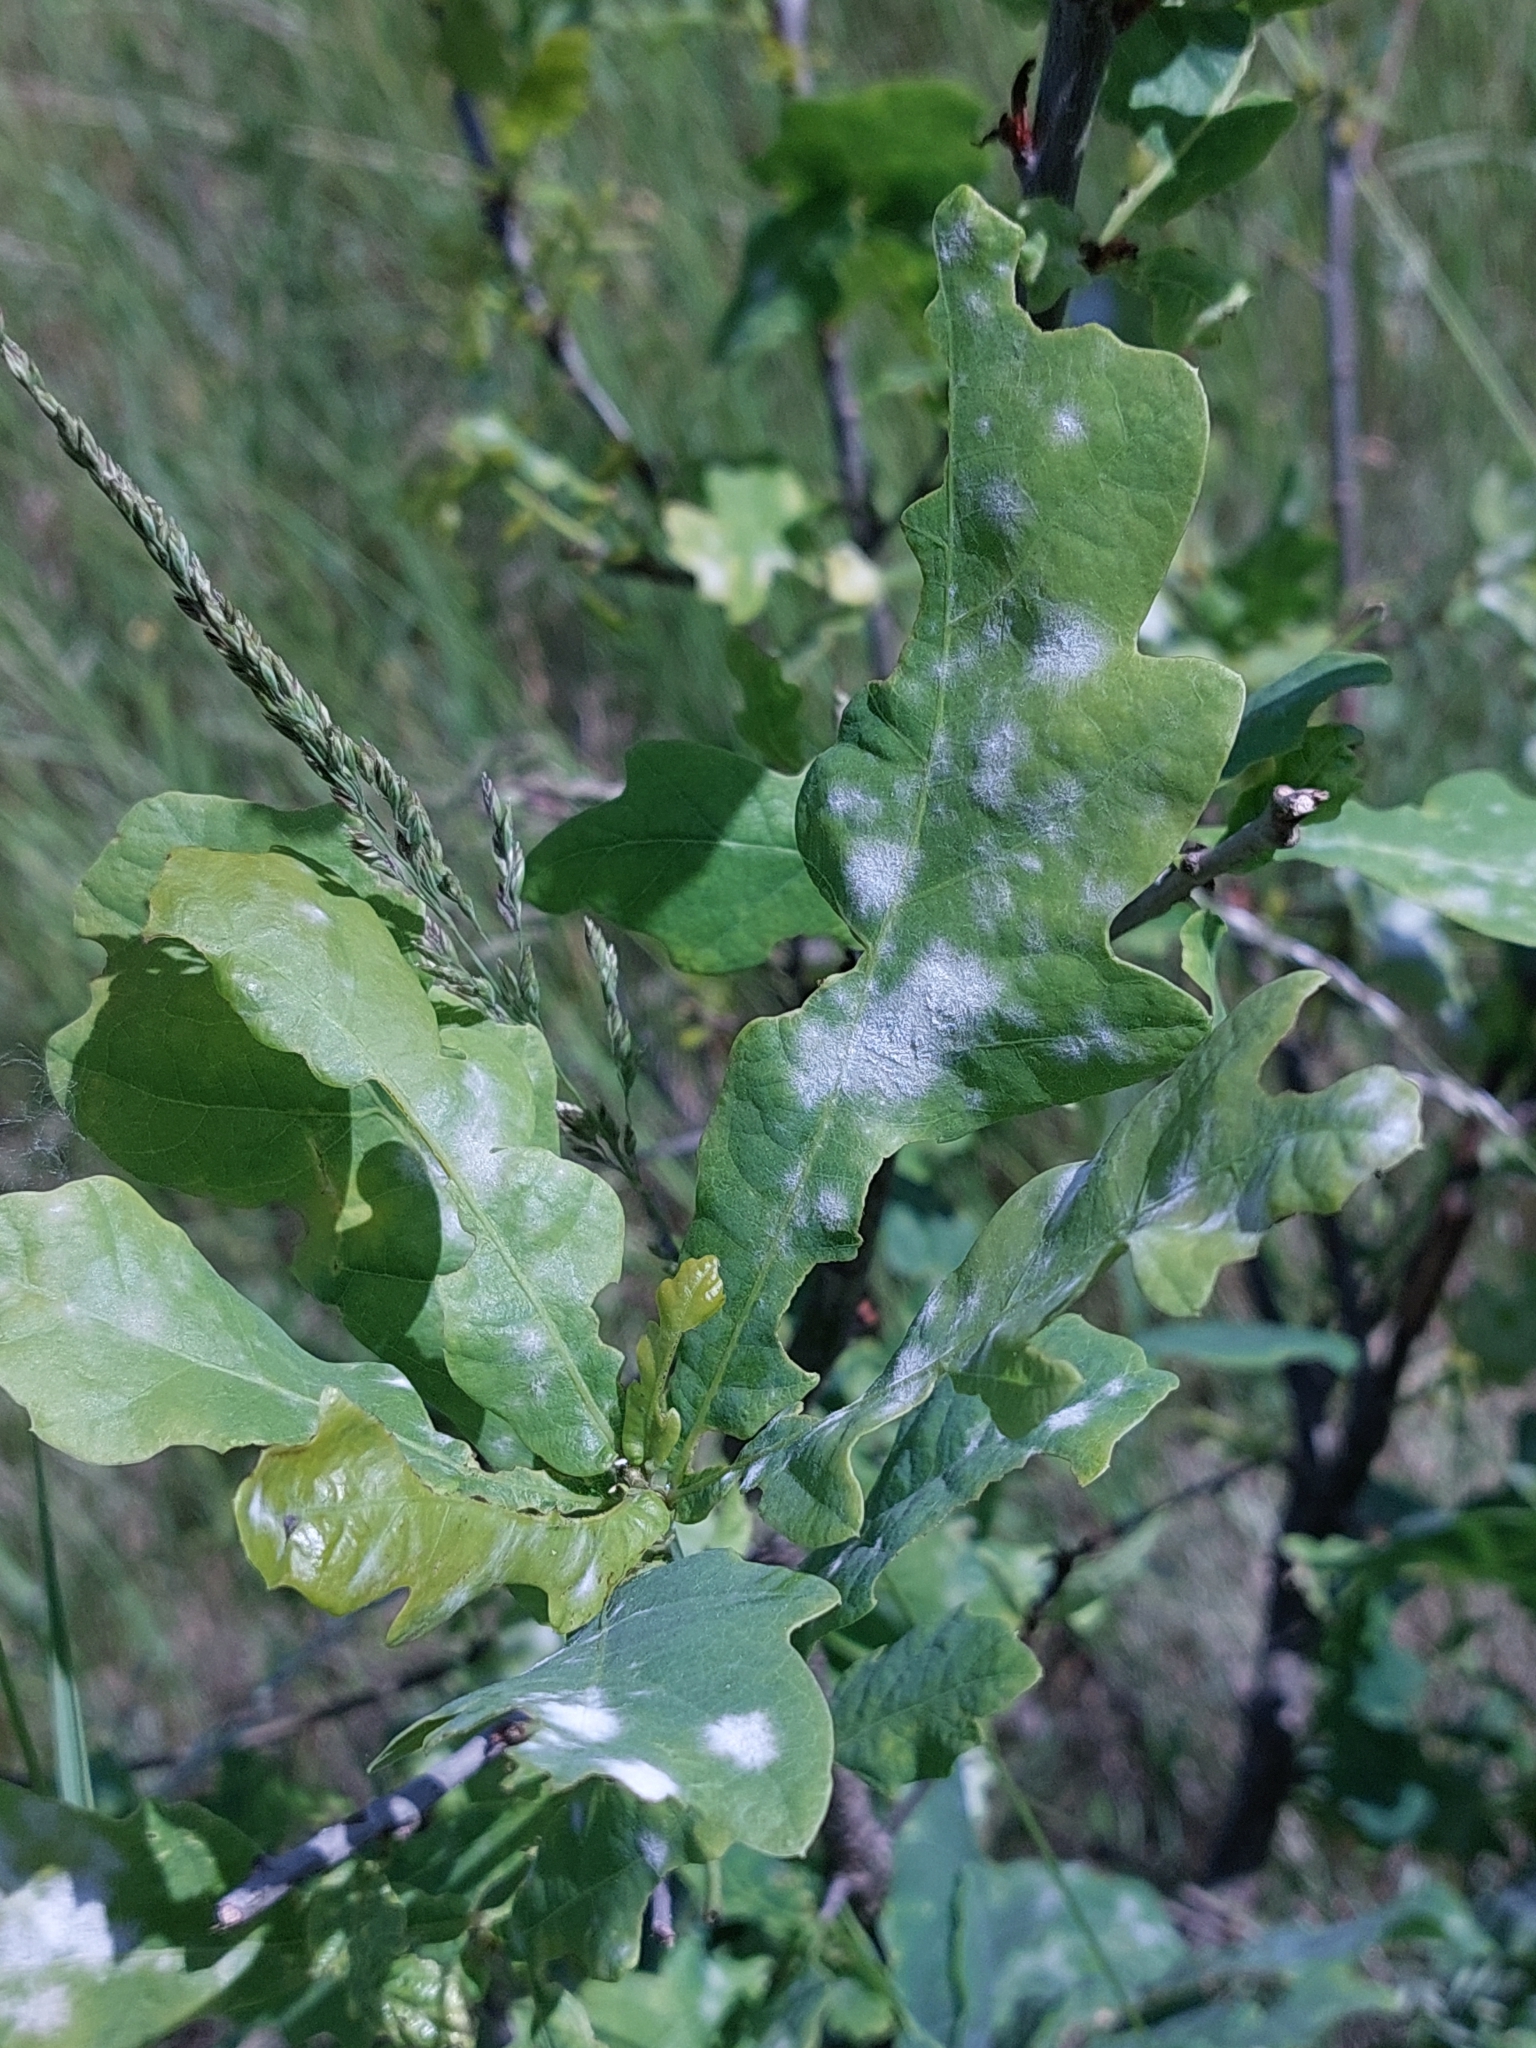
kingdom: Fungi
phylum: Ascomycota
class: Leotiomycetes
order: Helotiales
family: Erysiphaceae
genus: Erysiphe
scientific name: Erysiphe alphitoides
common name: Oak mildew
